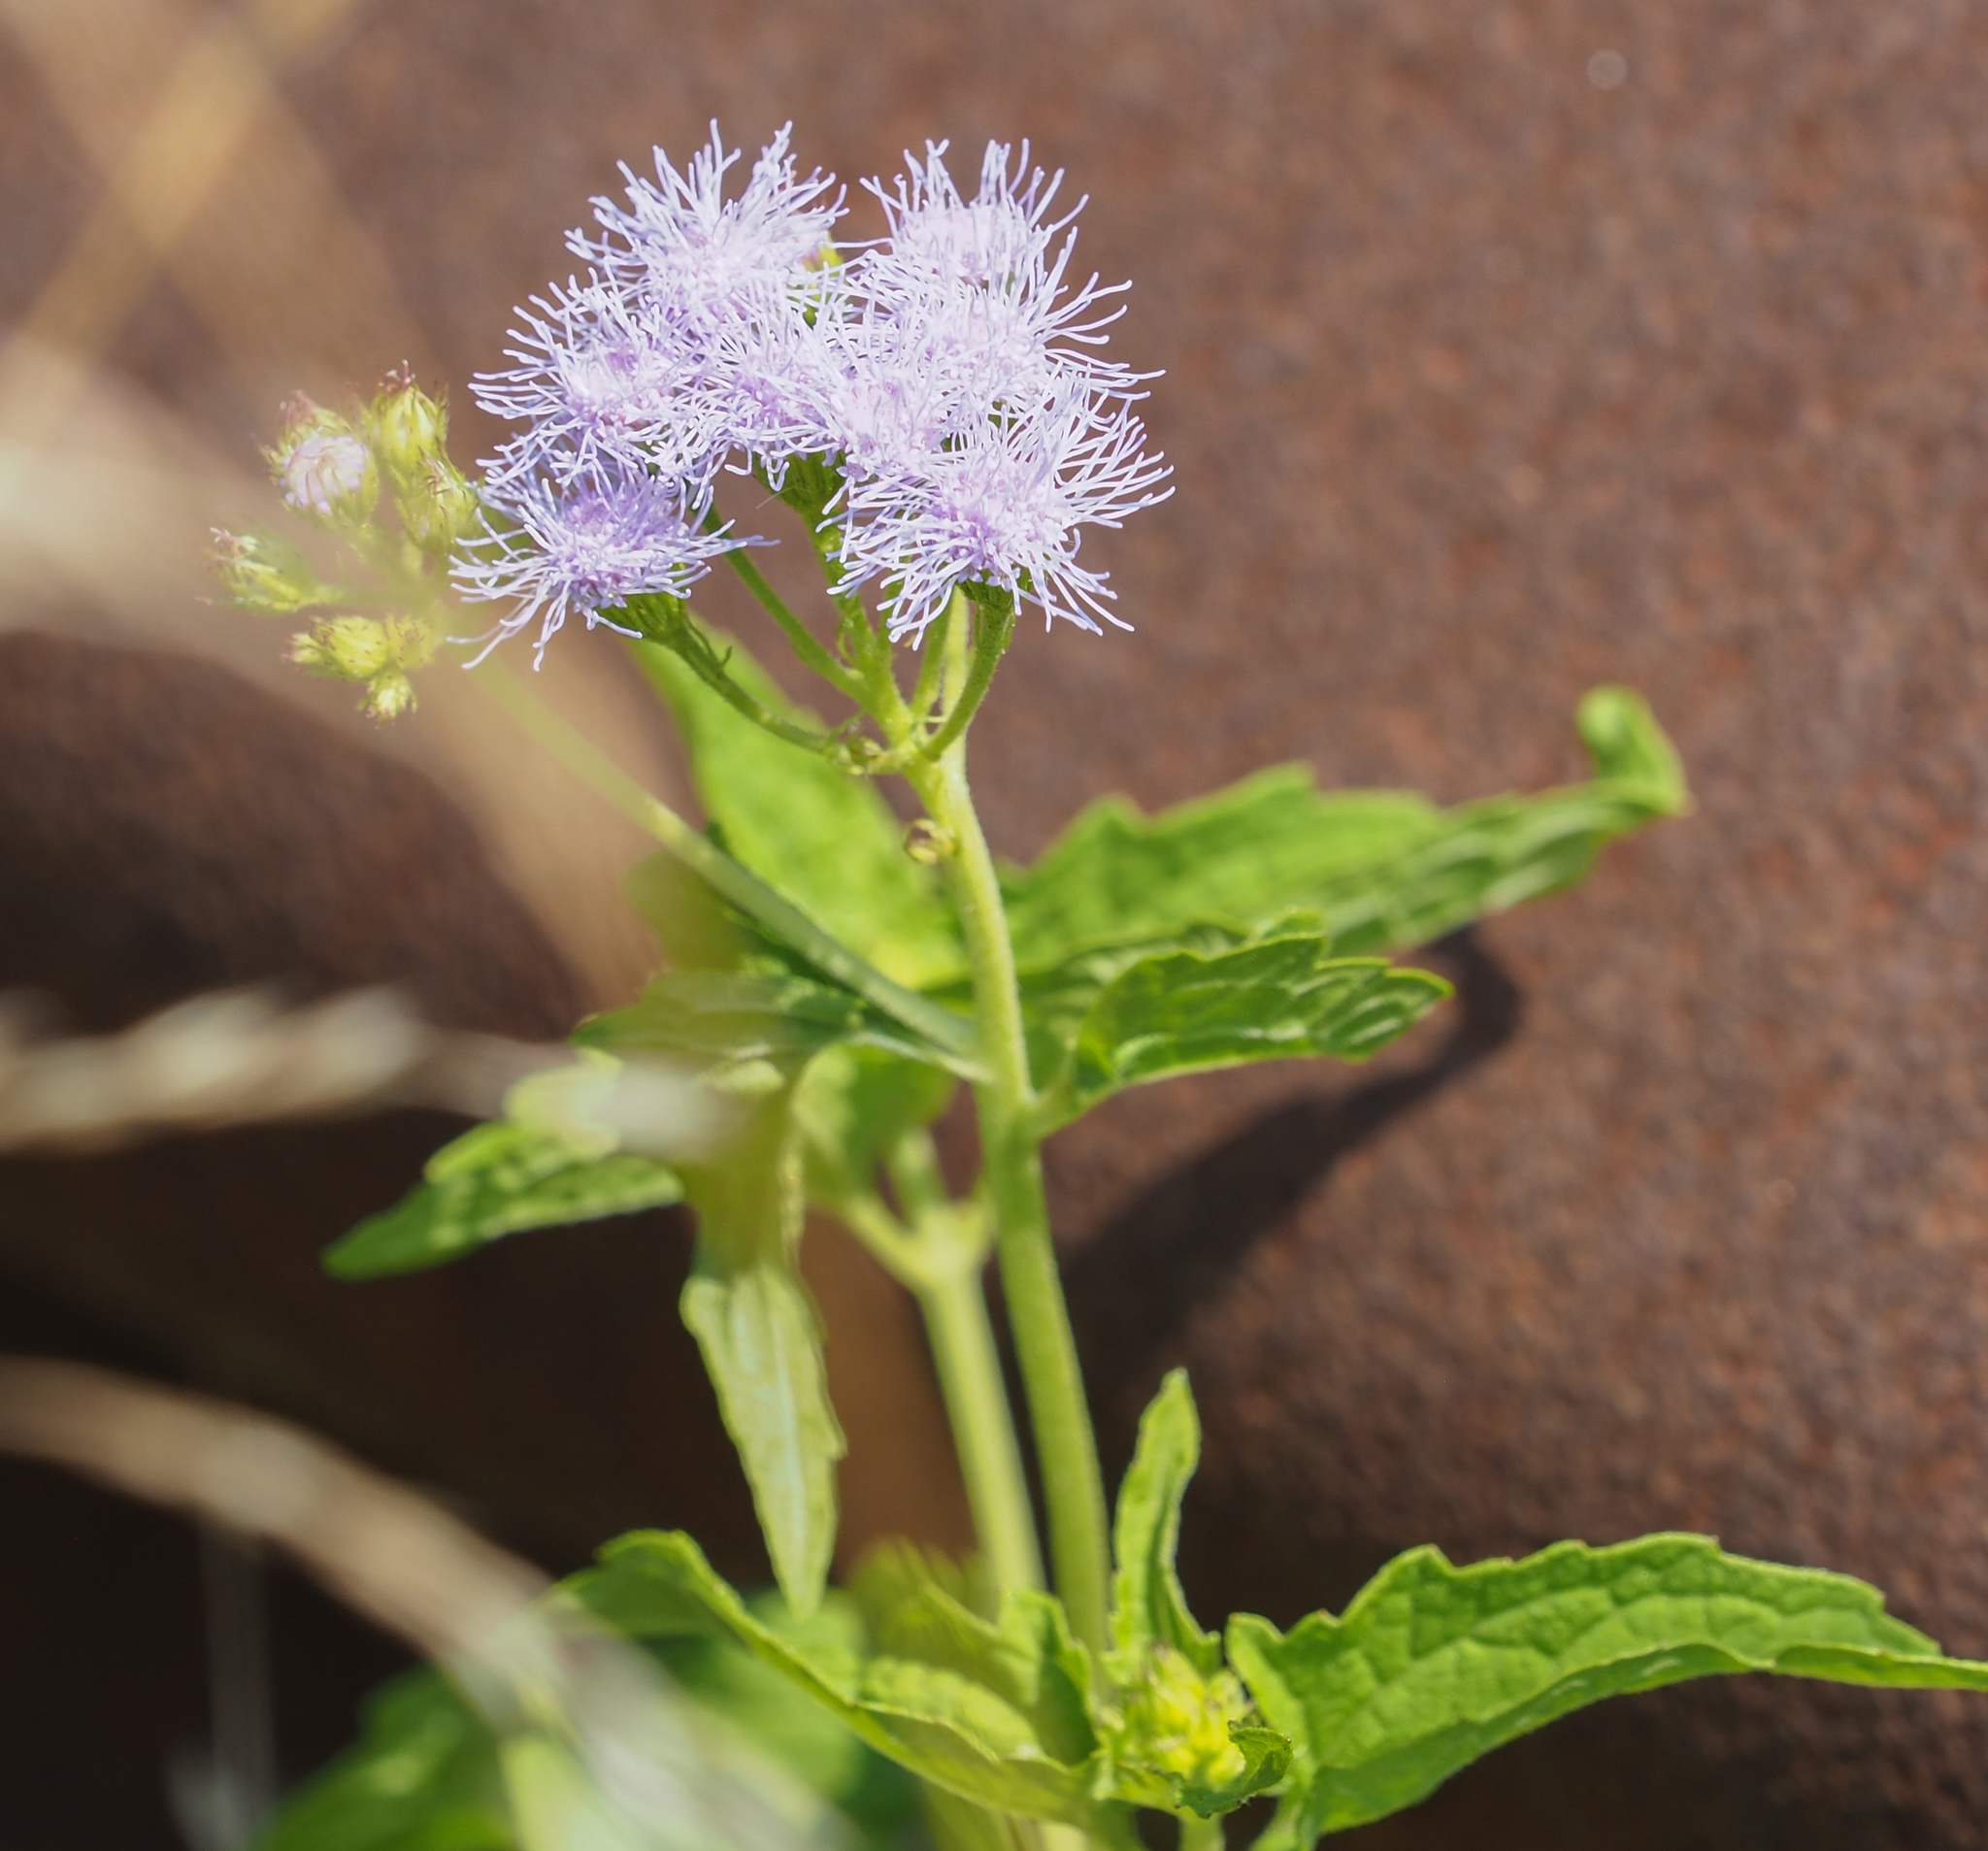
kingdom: Plantae
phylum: Tracheophyta
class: Magnoliopsida
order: Asterales
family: Asteraceae
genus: Conoclinium
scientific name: Conoclinium coelestinum
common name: Blue mistflower
